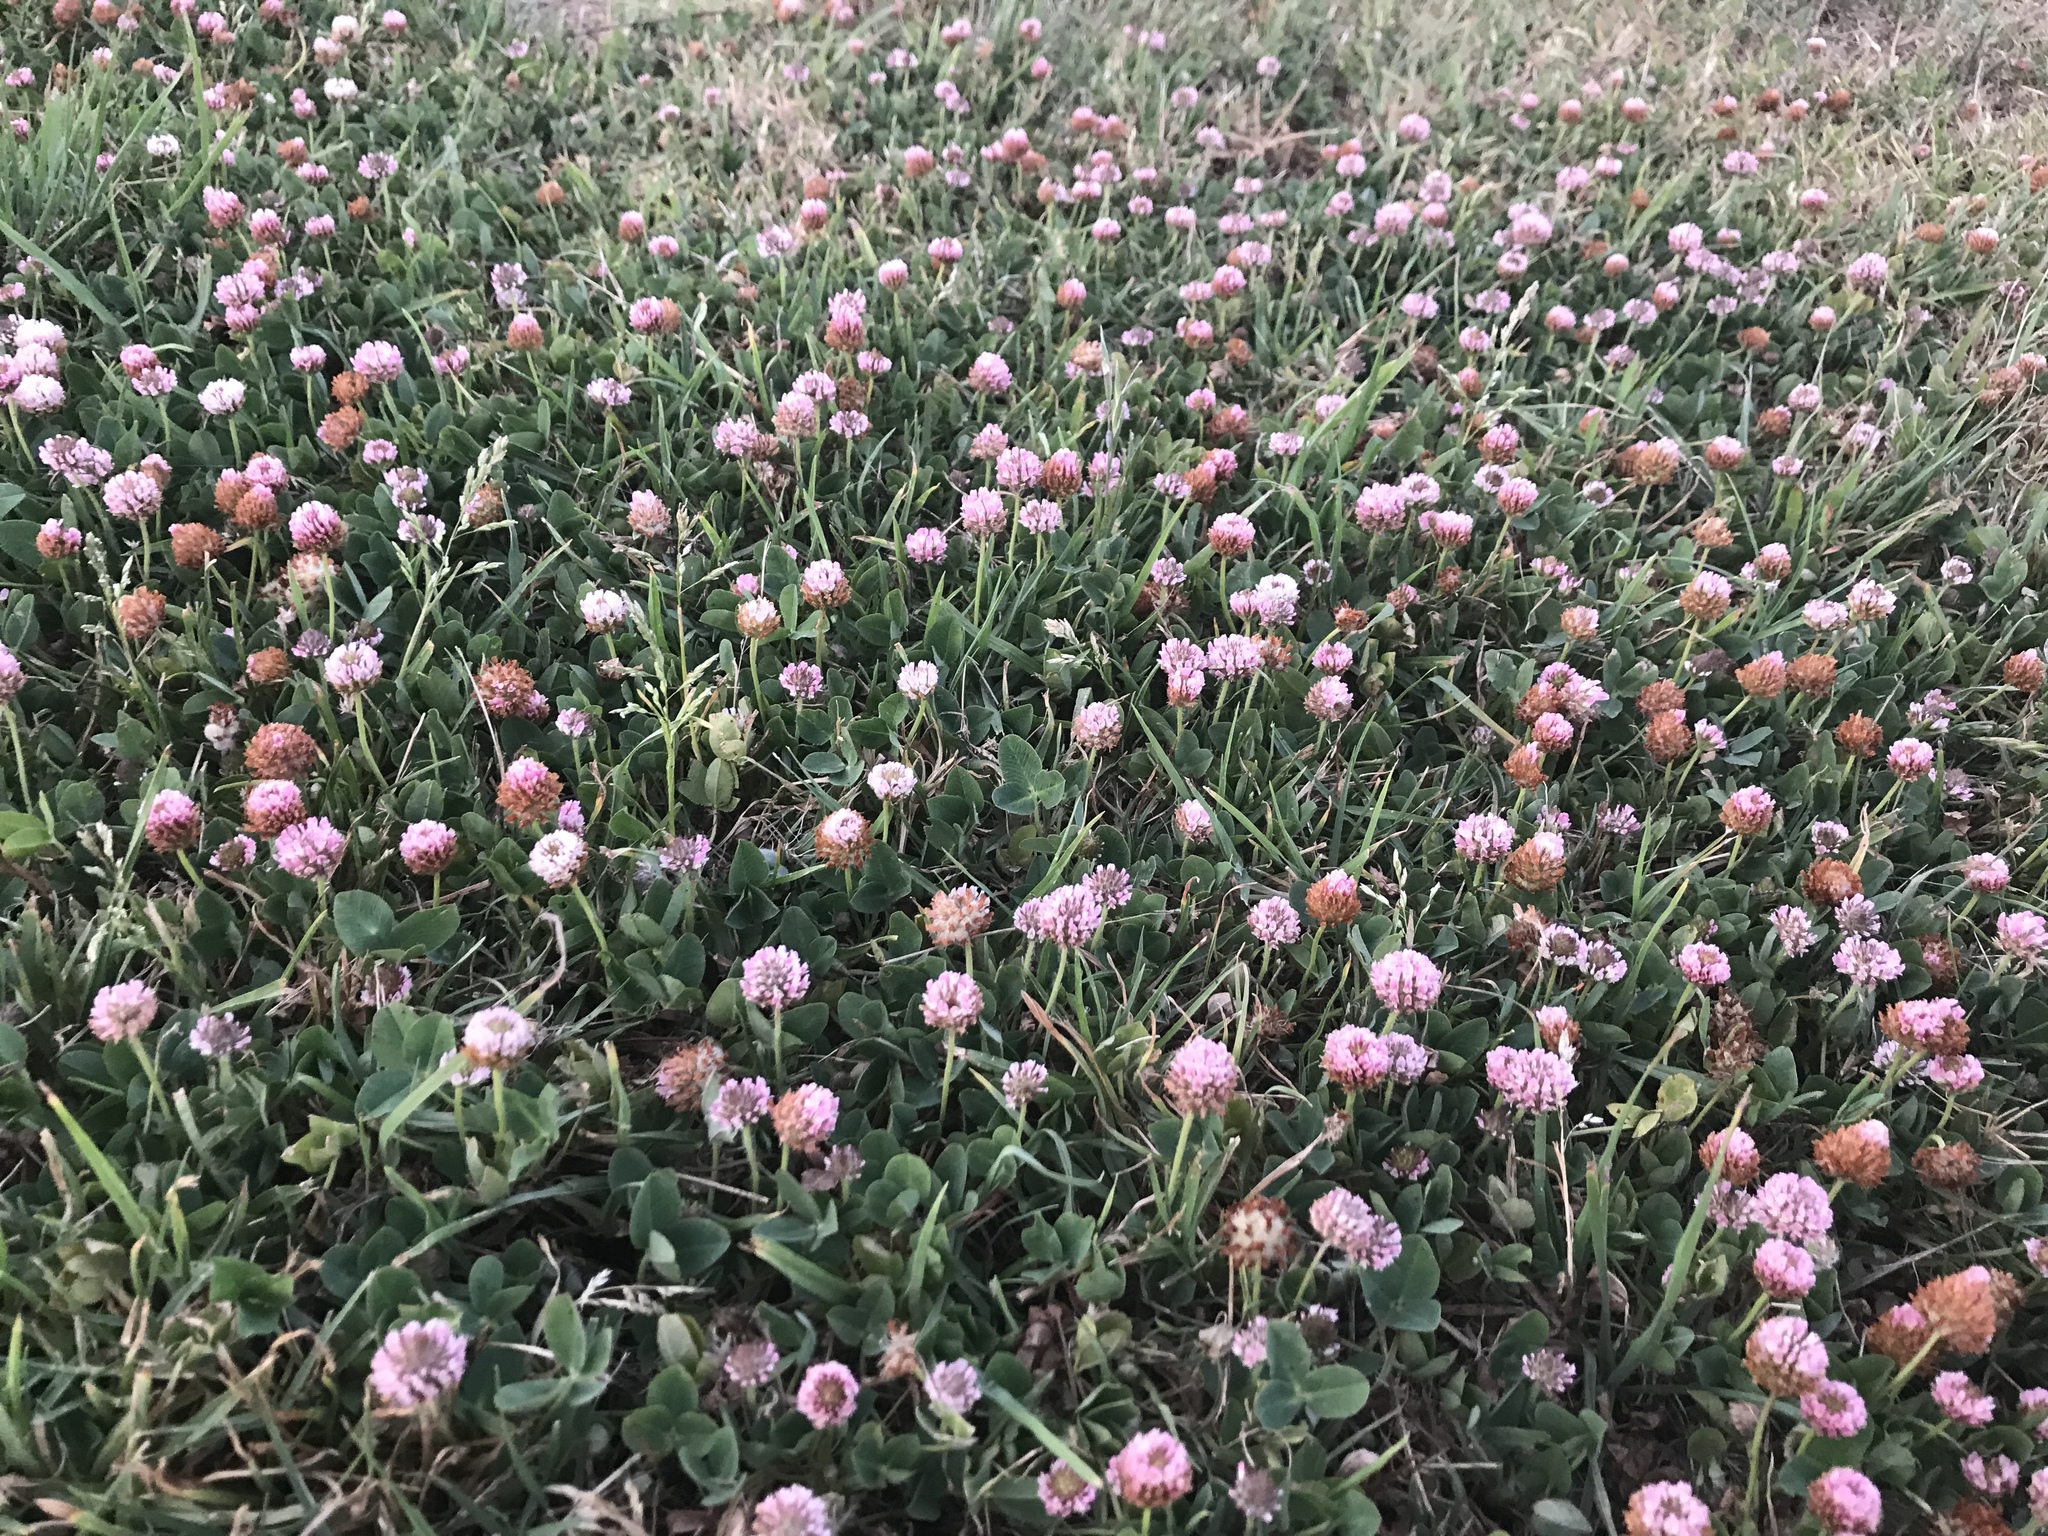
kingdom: Plantae
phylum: Tracheophyta
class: Magnoliopsida
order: Fabales
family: Fabaceae
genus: Trifolium
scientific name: Trifolium fragiferum
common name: Strawberry clover
